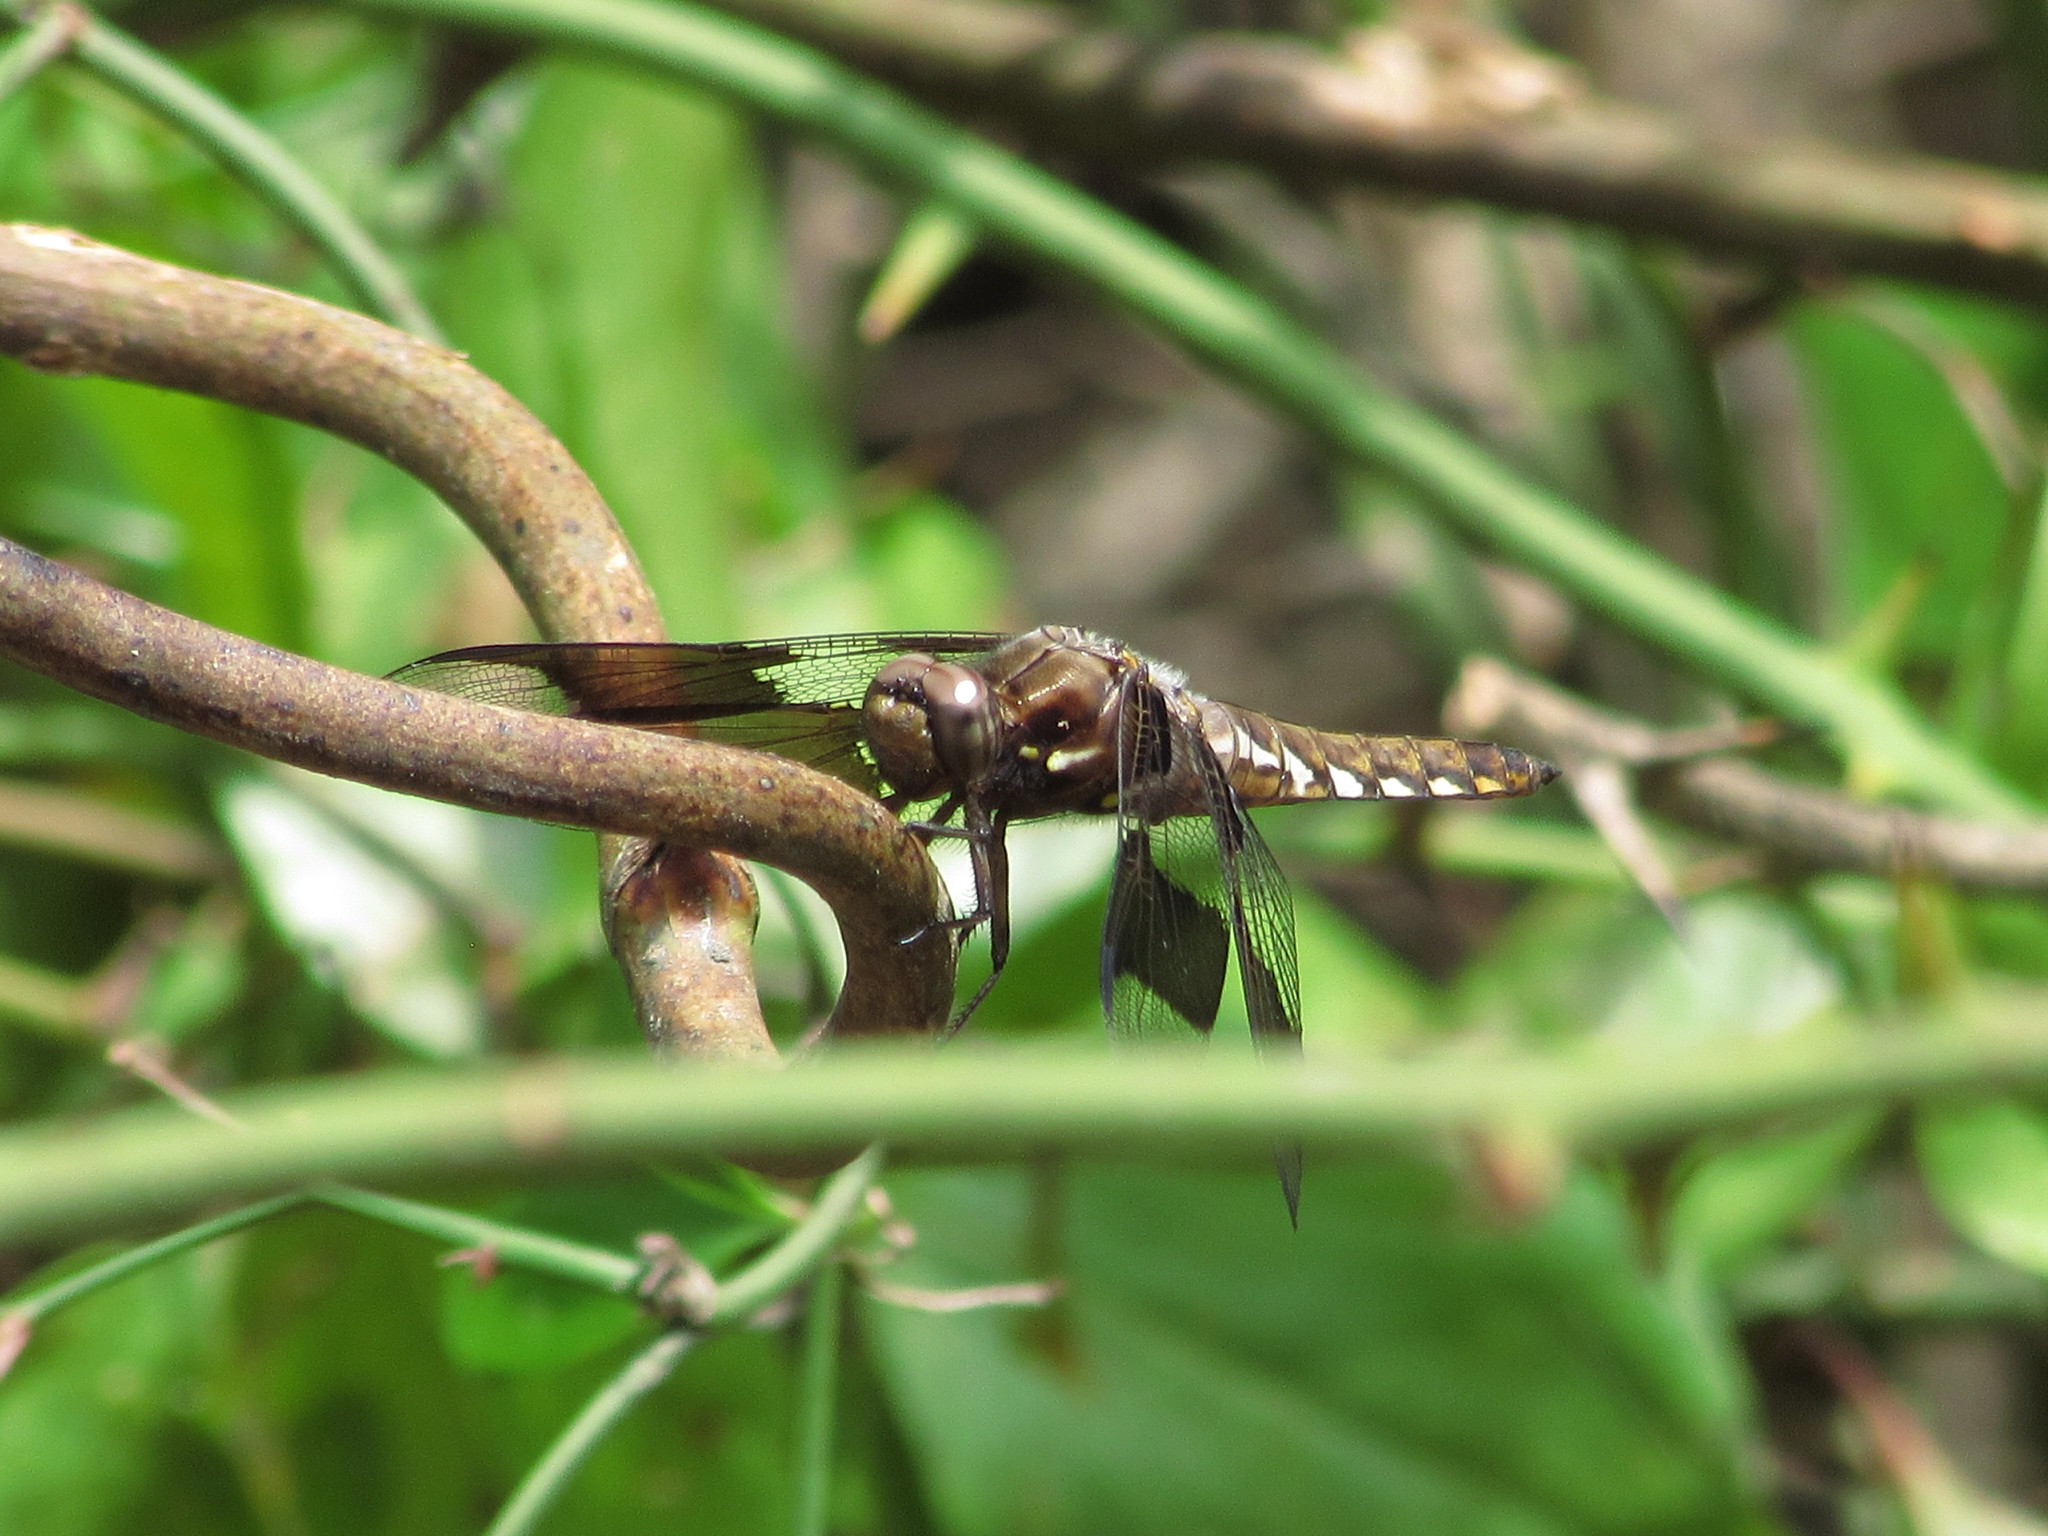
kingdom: Animalia
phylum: Arthropoda
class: Insecta
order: Odonata
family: Libellulidae
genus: Plathemis
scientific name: Plathemis lydia
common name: Common whitetail
